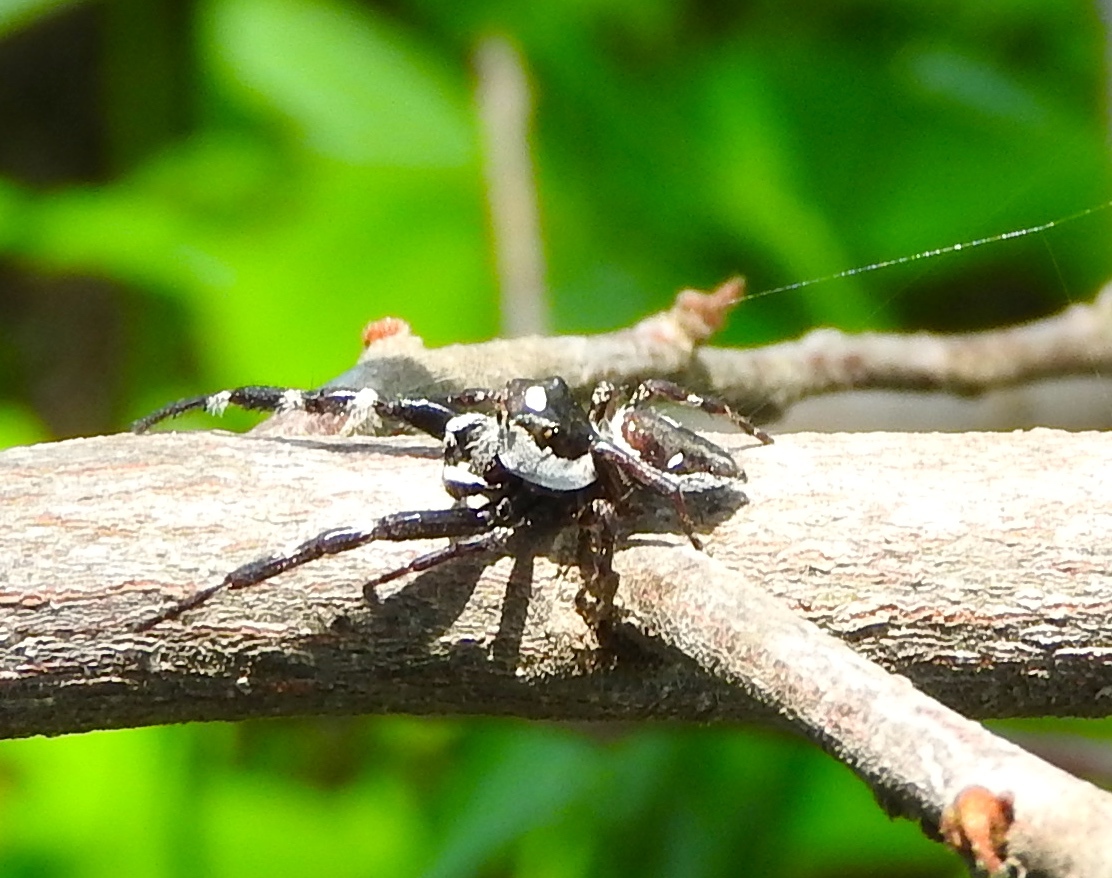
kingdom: Animalia
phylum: Arthropoda
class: Arachnida
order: Araneae
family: Salticidae
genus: Dendryphantes
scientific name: Dendryphantes zygoballoides
